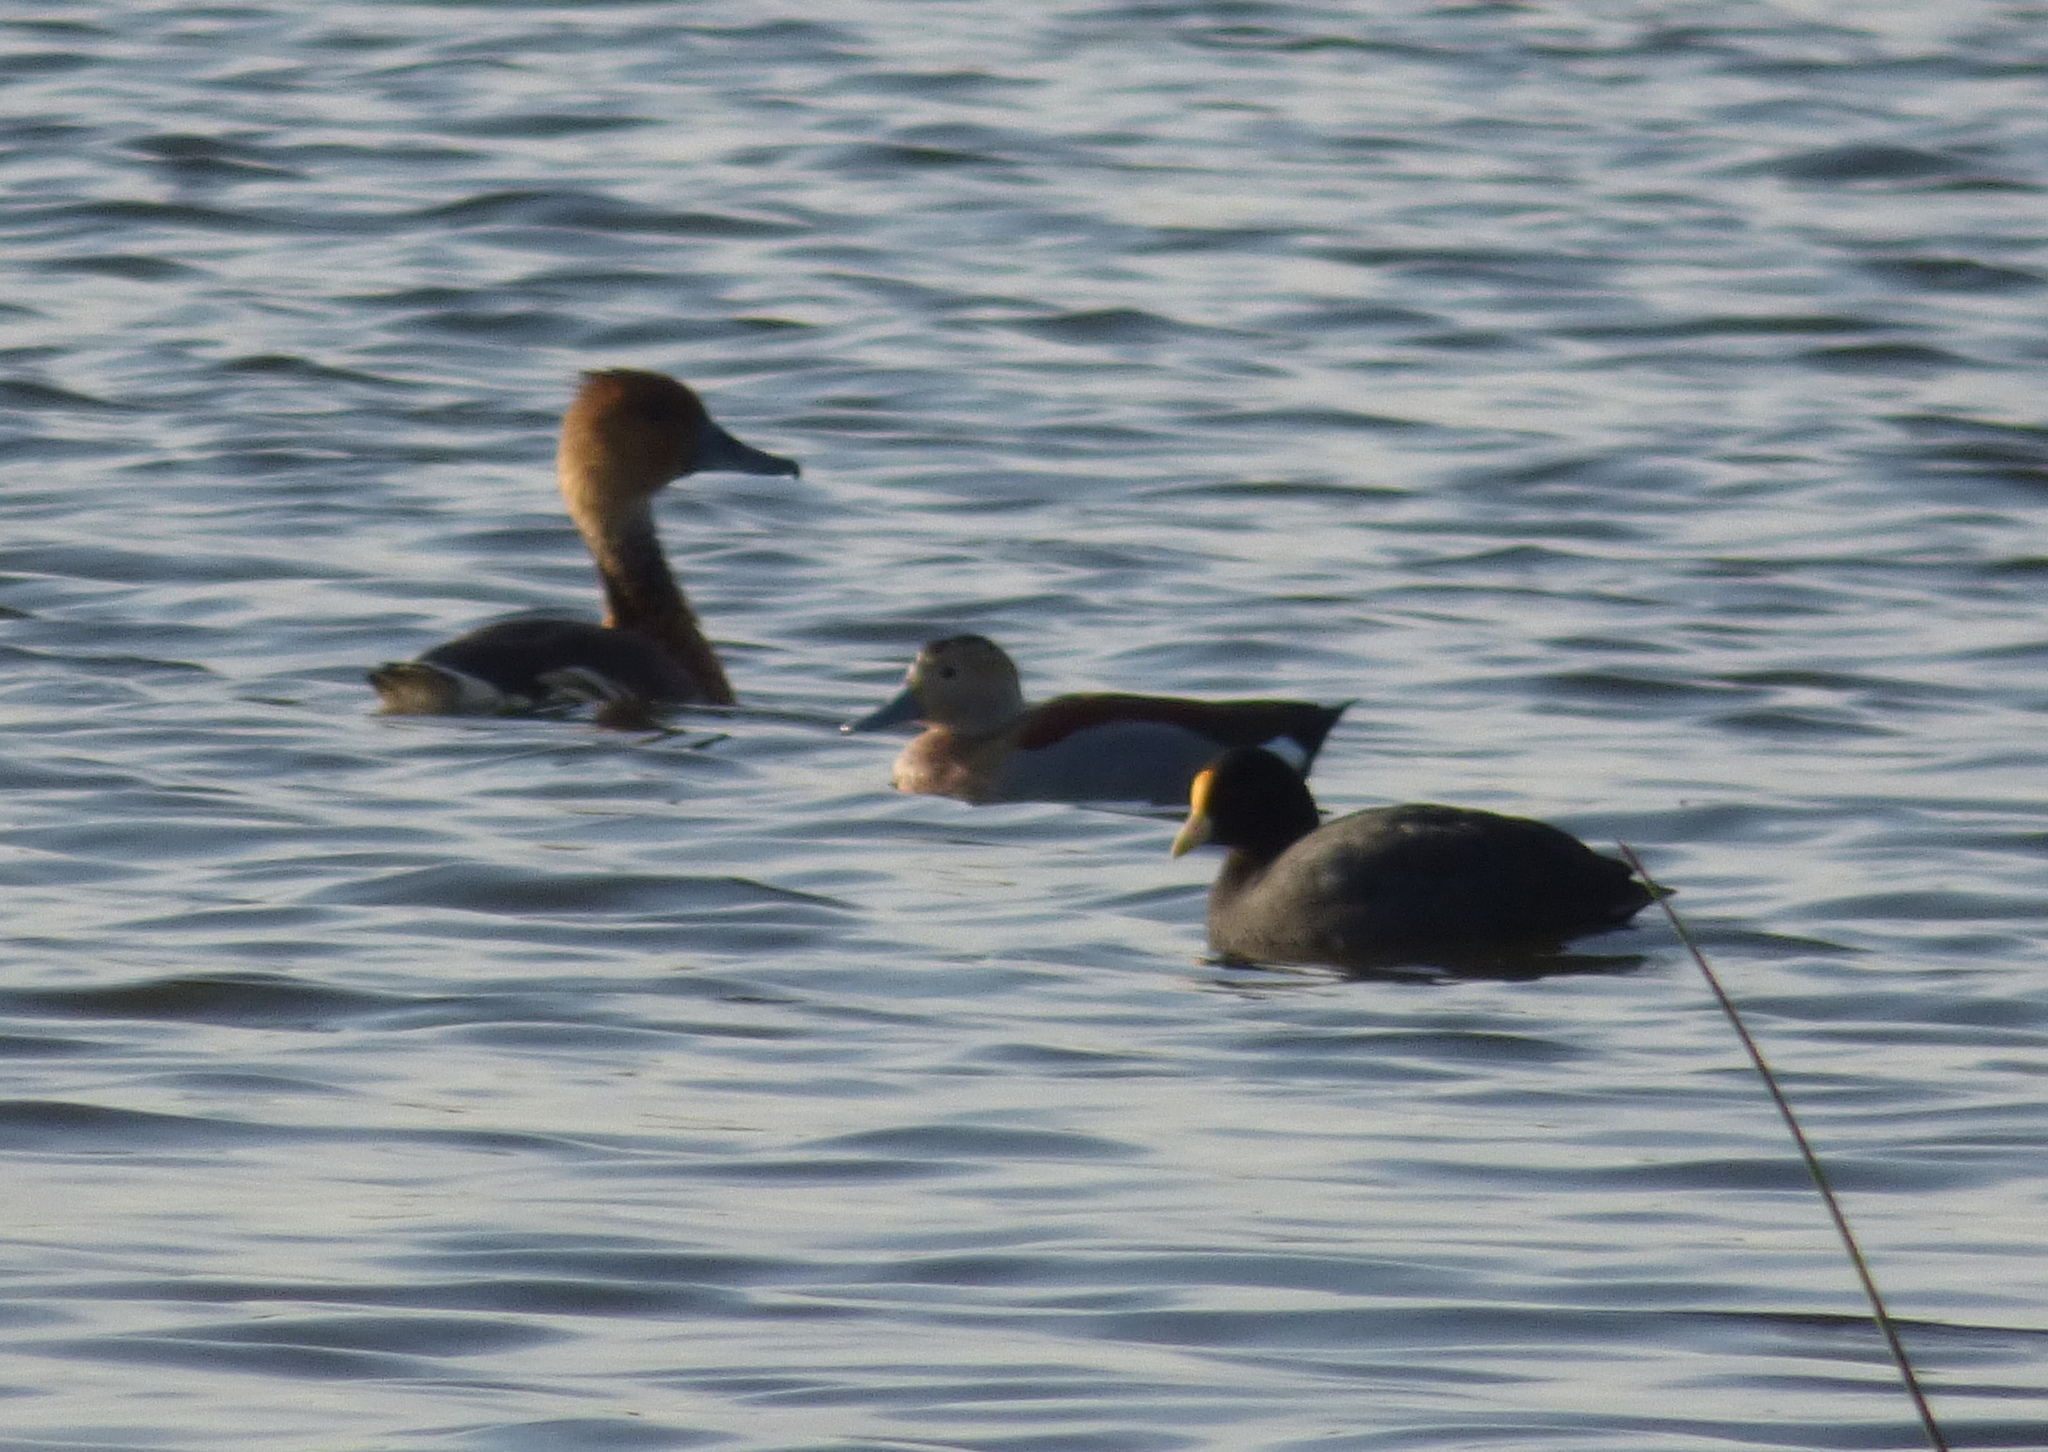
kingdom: Animalia
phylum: Chordata
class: Aves
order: Anseriformes
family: Anatidae
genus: Dendrocygna
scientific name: Dendrocygna bicolor
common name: Fulvous whistling duck
